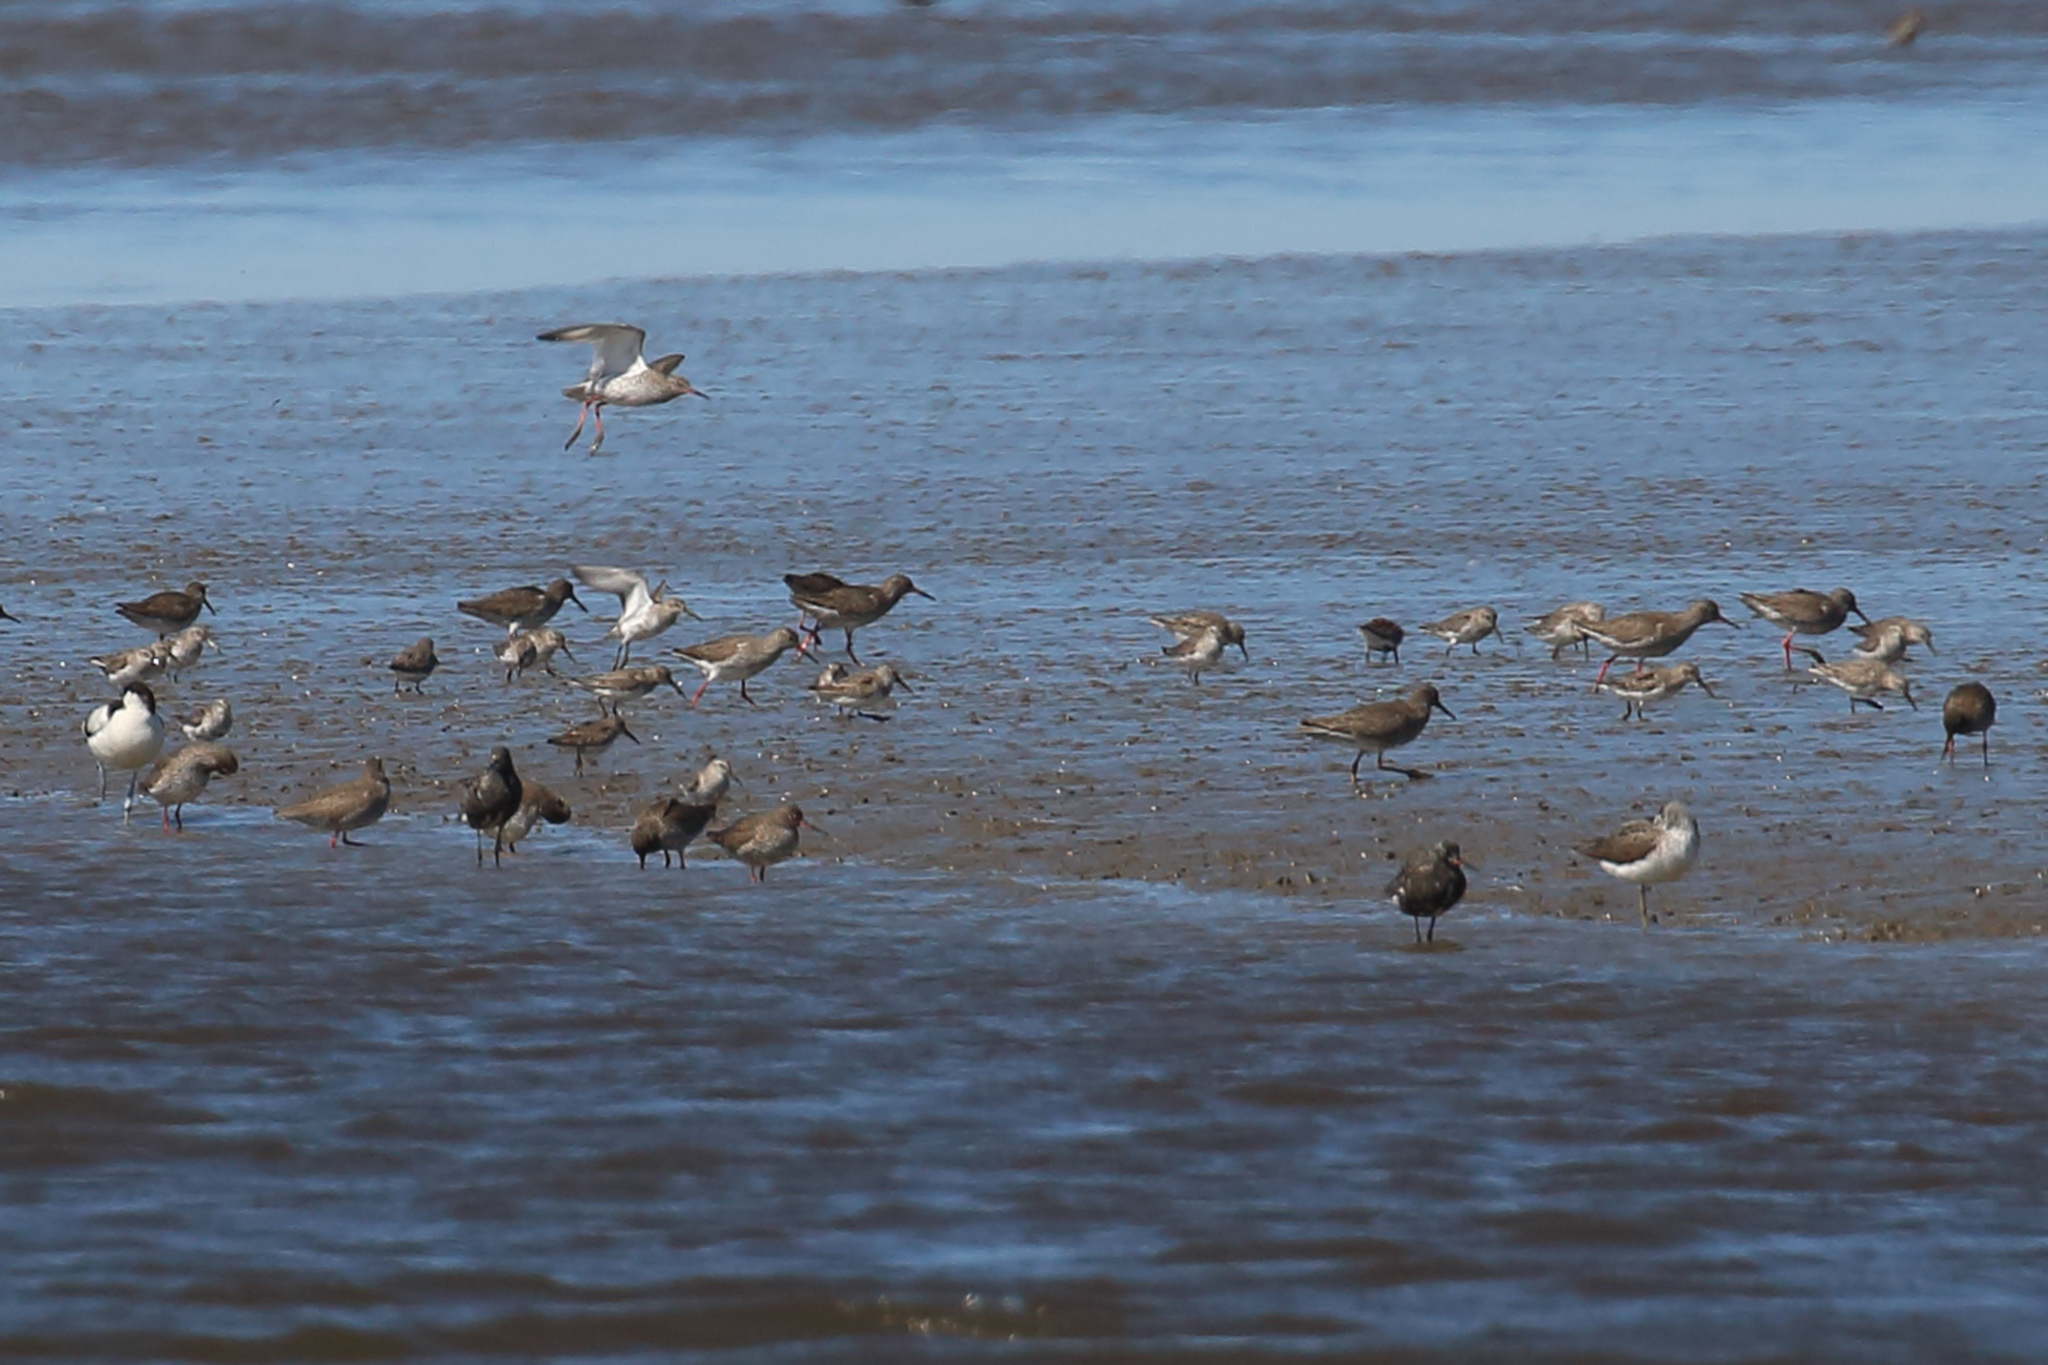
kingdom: Animalia
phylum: Chordata
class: Aves
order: Charadriiformes
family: Scolopacidae
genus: Tringa
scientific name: Tringa erythropus
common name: Spotted redshank
